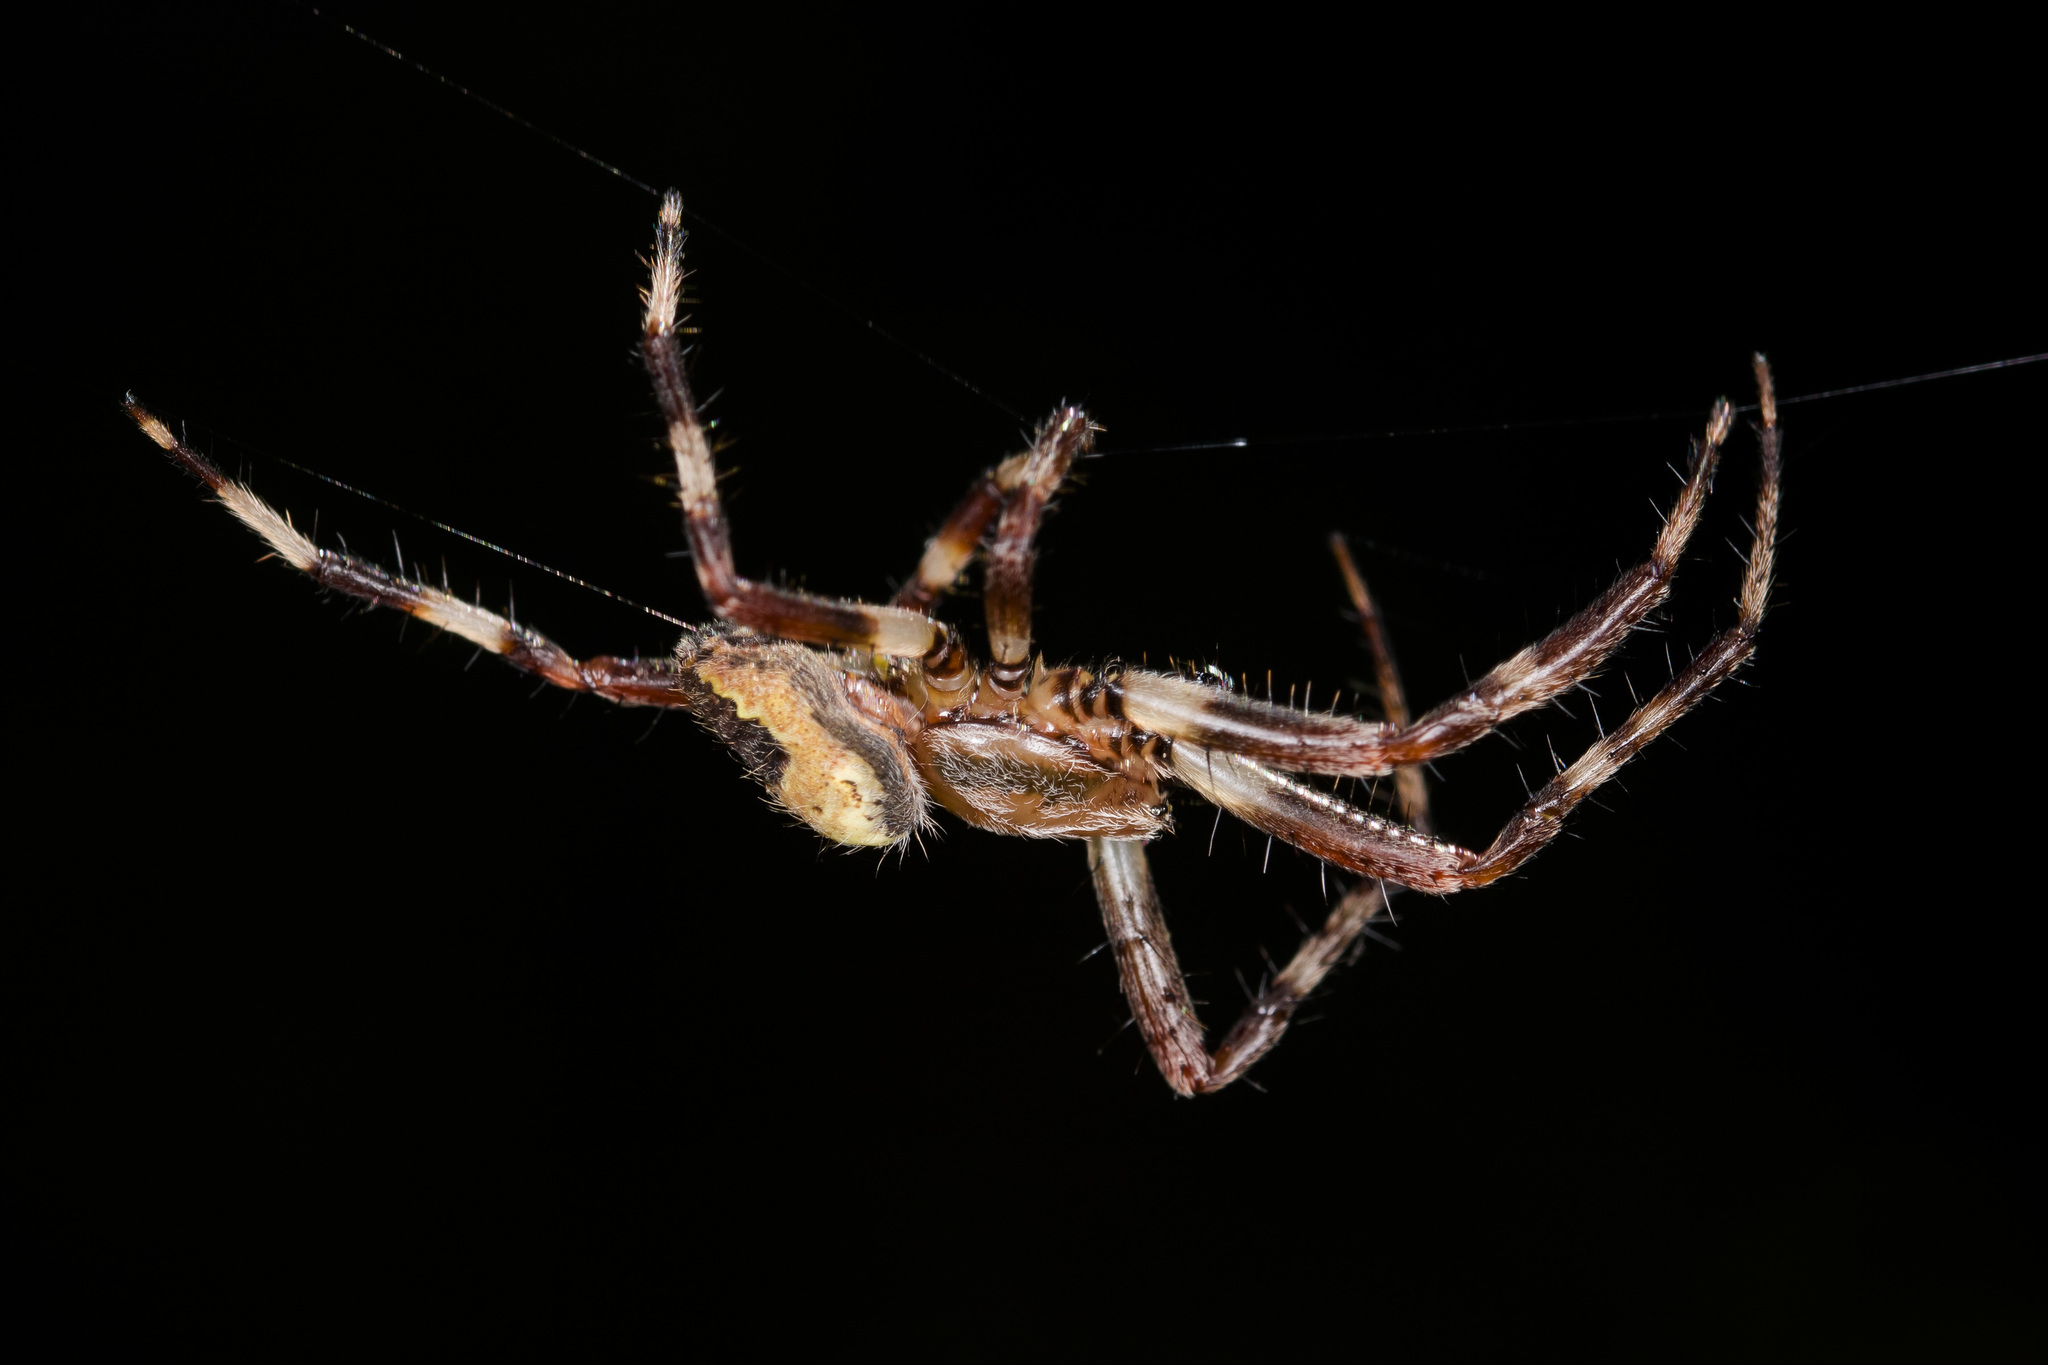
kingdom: Animalia
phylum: Arthropoda
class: Arachnida
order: Araneae
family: Araneidae
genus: Araneus
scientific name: Araneus marmoreus
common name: Marbled orbweaver
